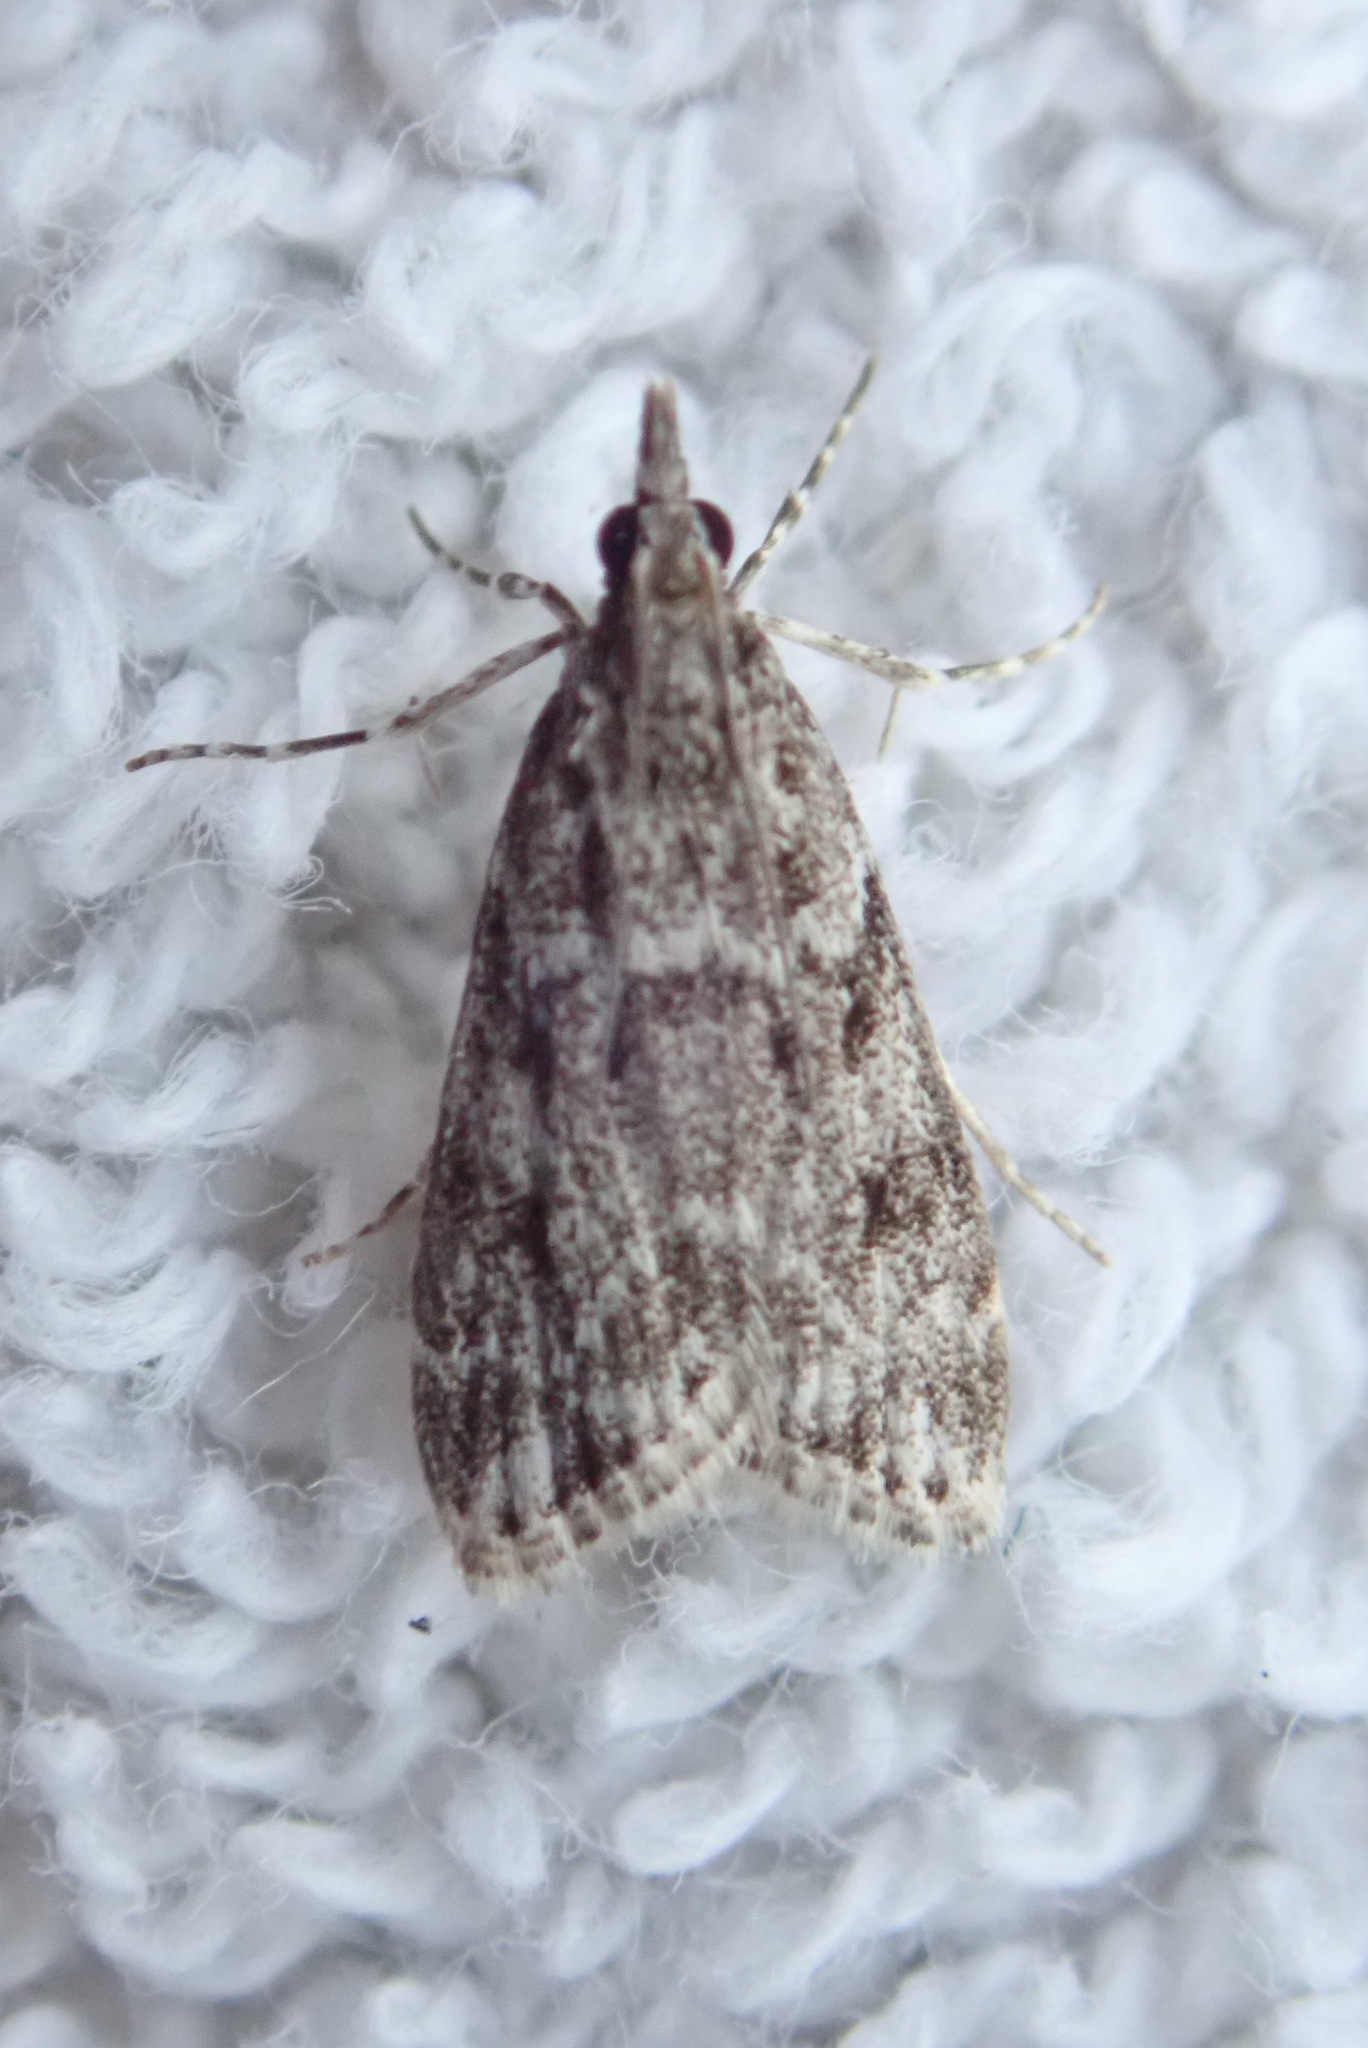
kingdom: Animalia
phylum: Arthropoda
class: Insecta
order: Lepidoptera
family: Crambidae
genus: Eudonia
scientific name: Eudonia heterosalis
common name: Mcdunnough's eudonia
